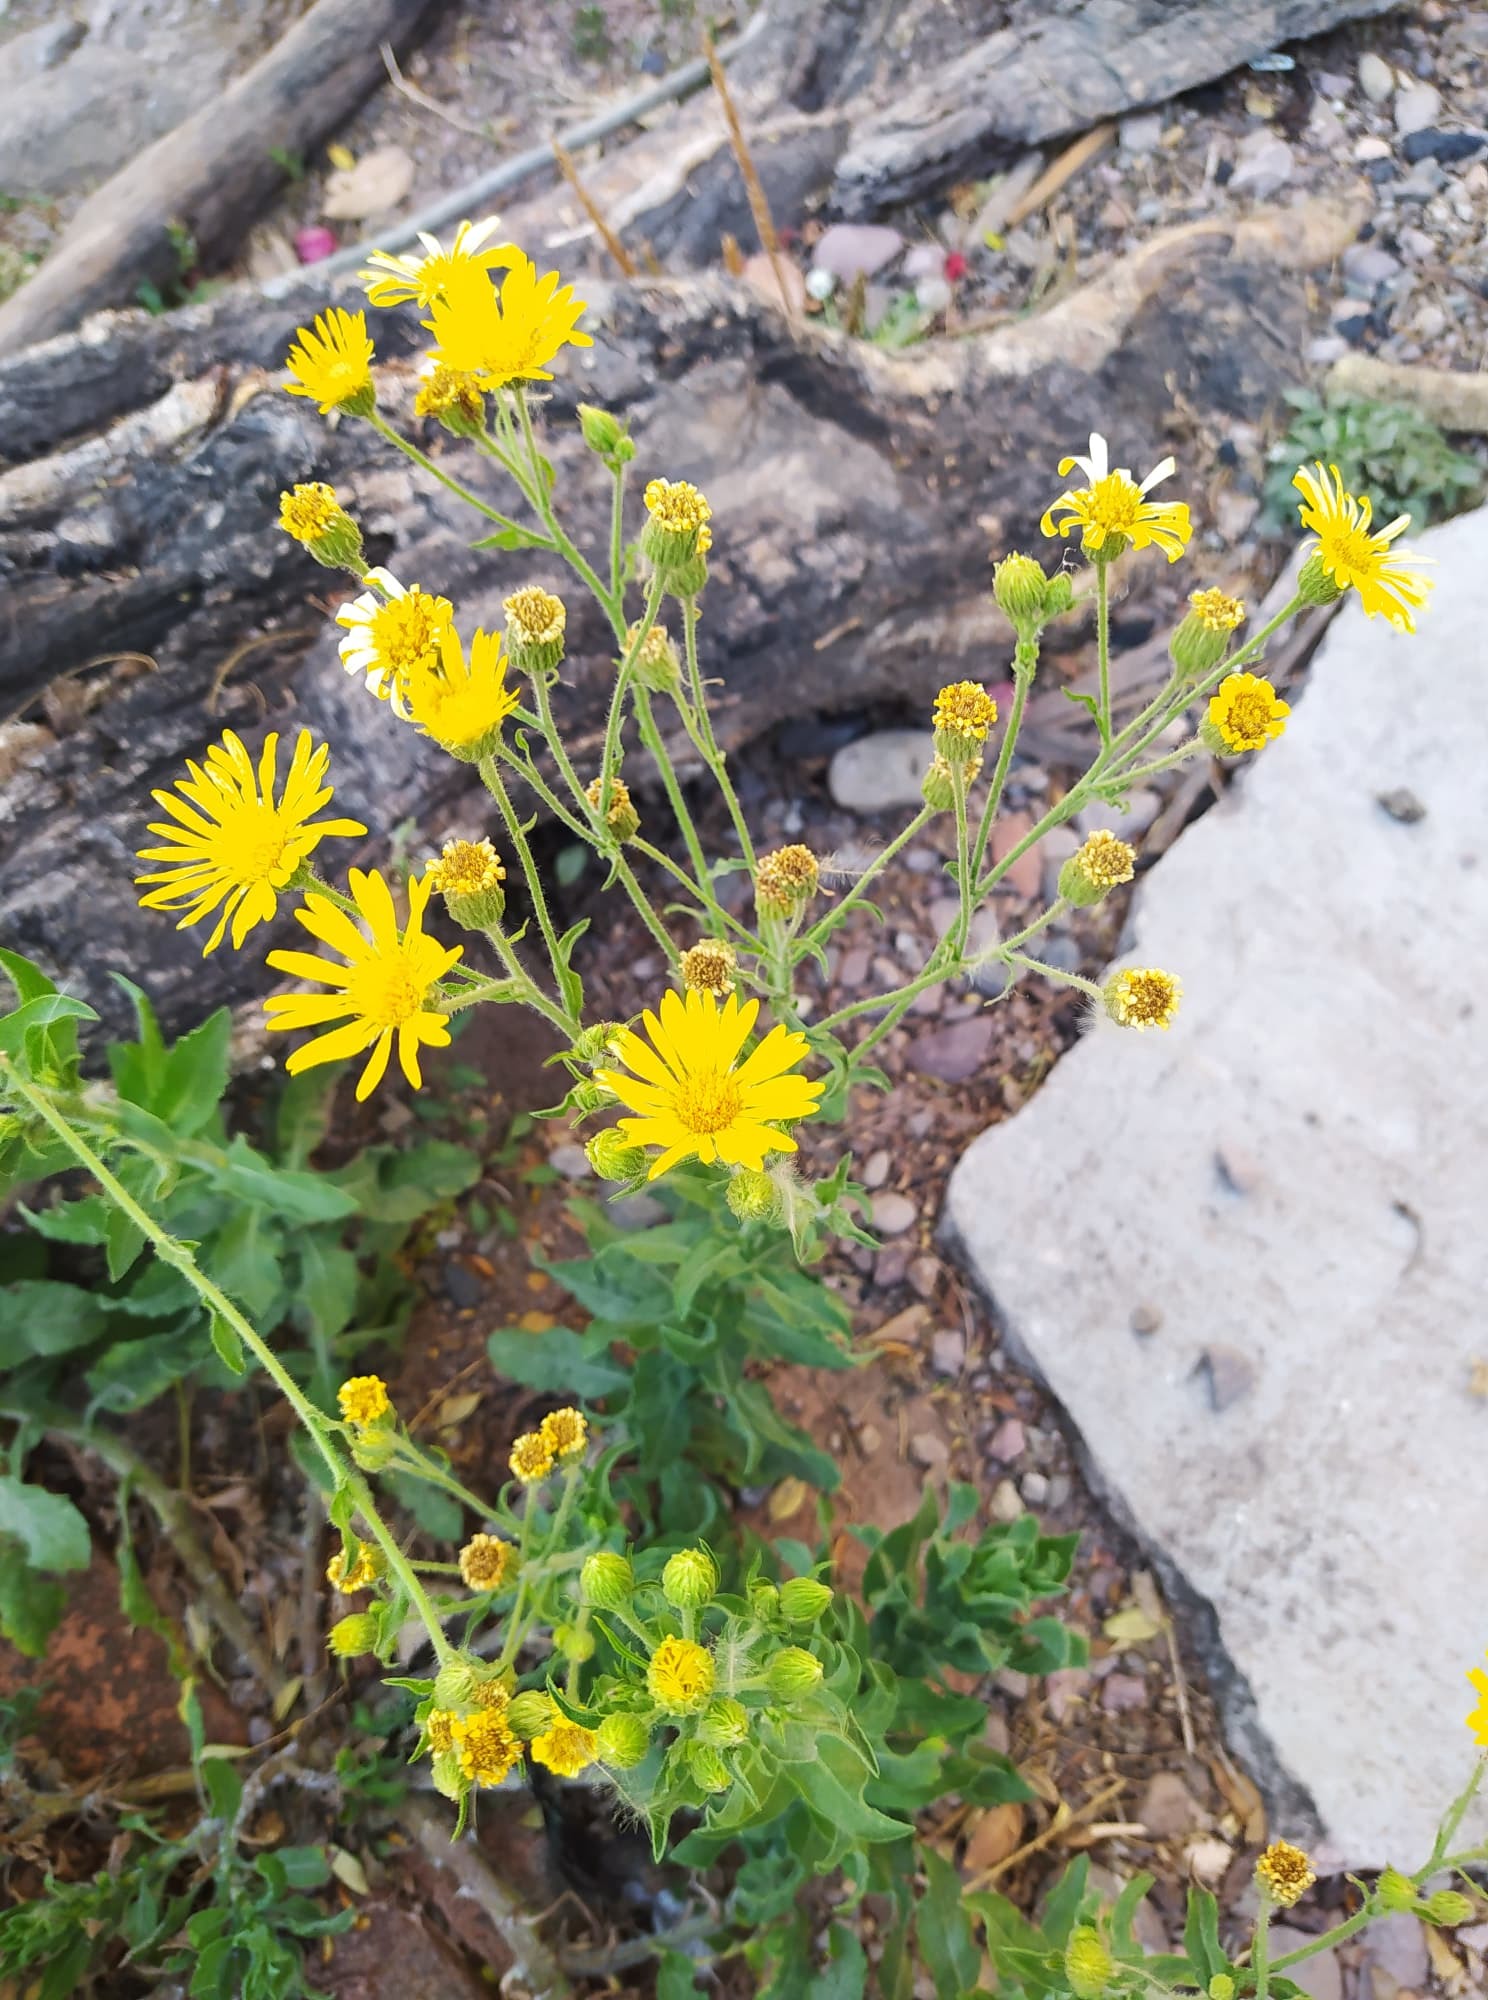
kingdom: Plantae
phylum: Tracheophyta
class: Magnoliopsida
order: Asterales
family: Asteraceae
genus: Heterotheca
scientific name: Heterotheca inuloides
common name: False arnica
